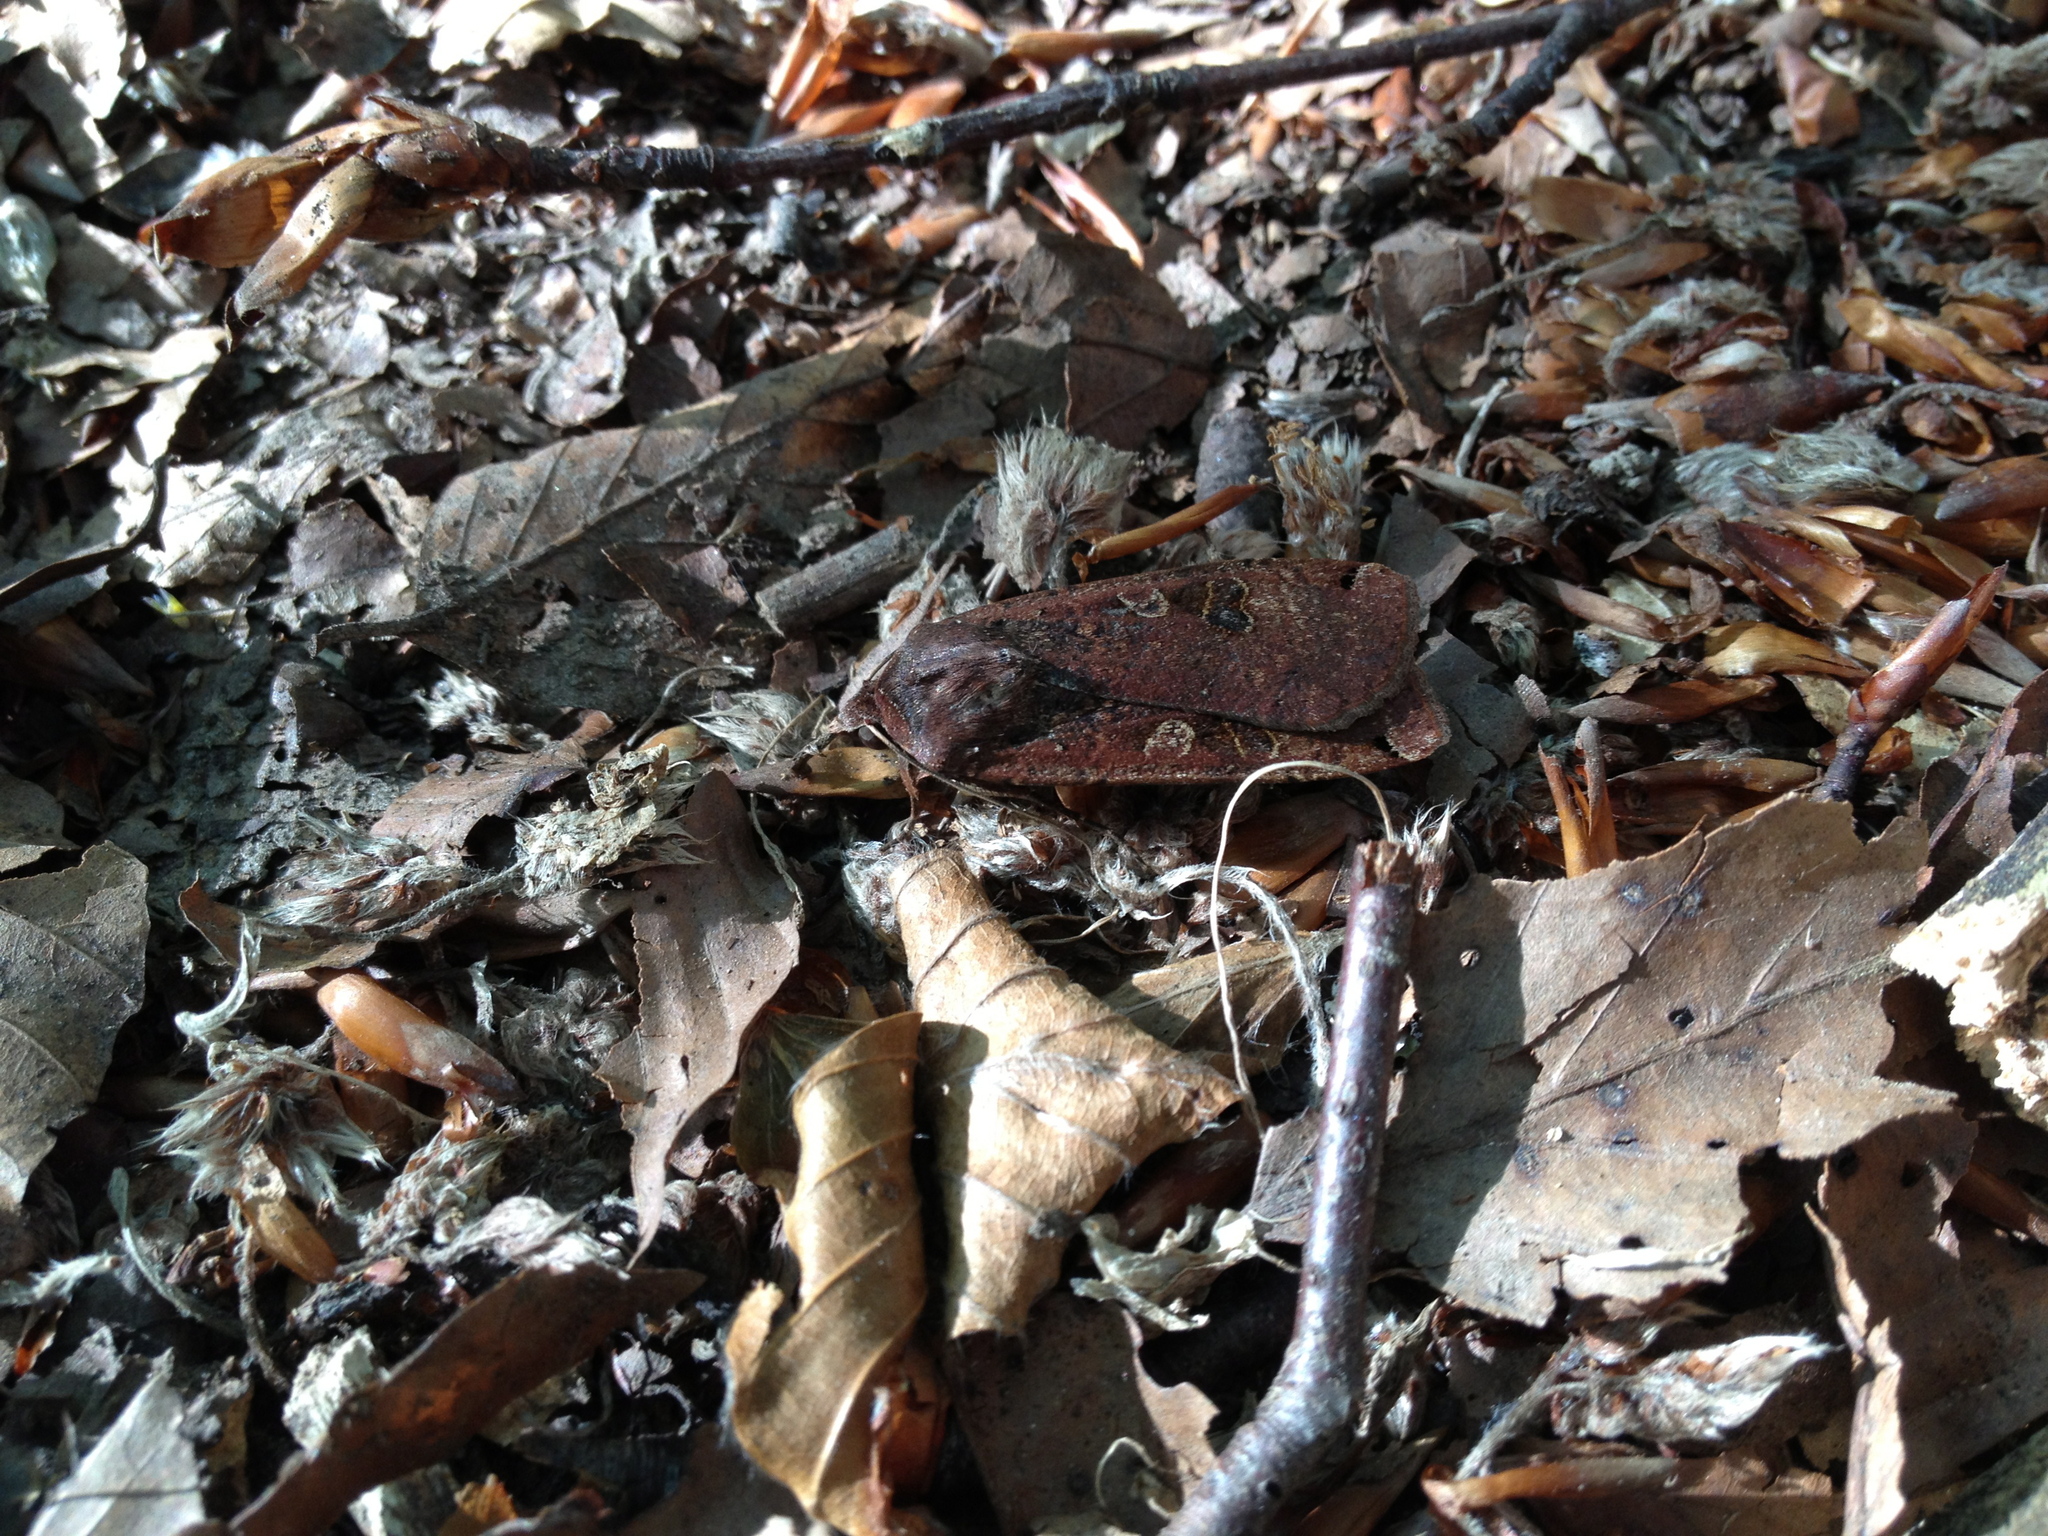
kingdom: Animalia
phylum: Arthropoda
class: Insecta
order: Lepidoptera
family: Noctuidae
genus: Noctua
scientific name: Noctua pronuba
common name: Large yellow underwing
